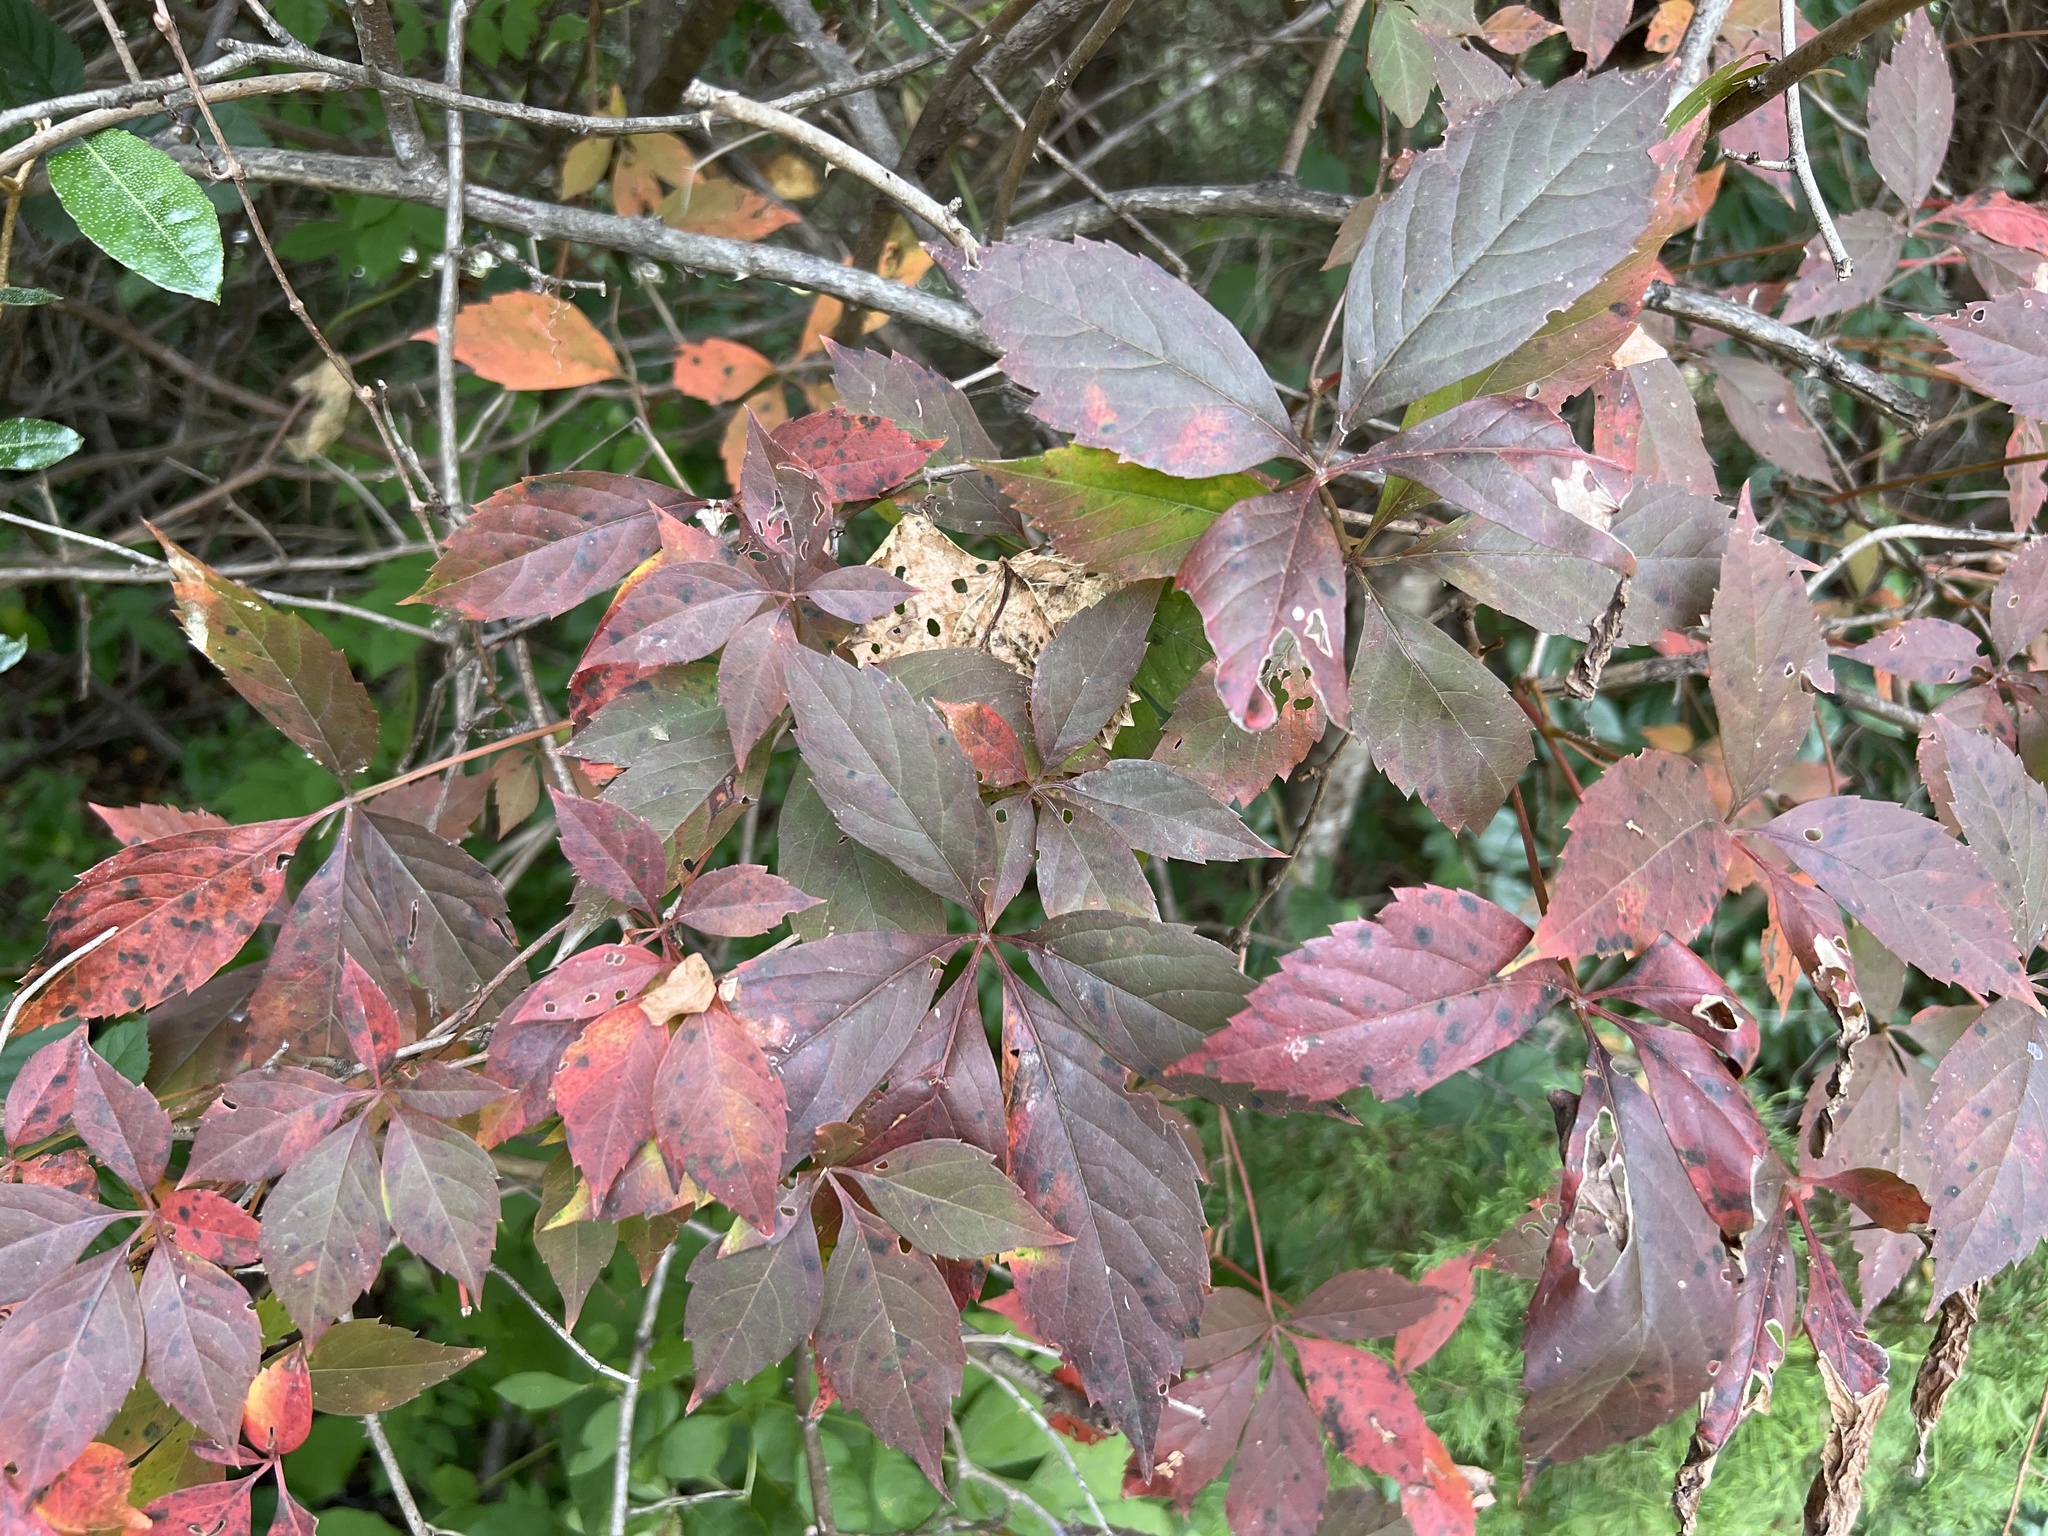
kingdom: Plantae
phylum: Tracheophyta
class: Magnoliopsida
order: Vitales
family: Vitaceae
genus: Parthenocissus
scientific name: Parthenocissus quinquefolia
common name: Virginia-creeper
